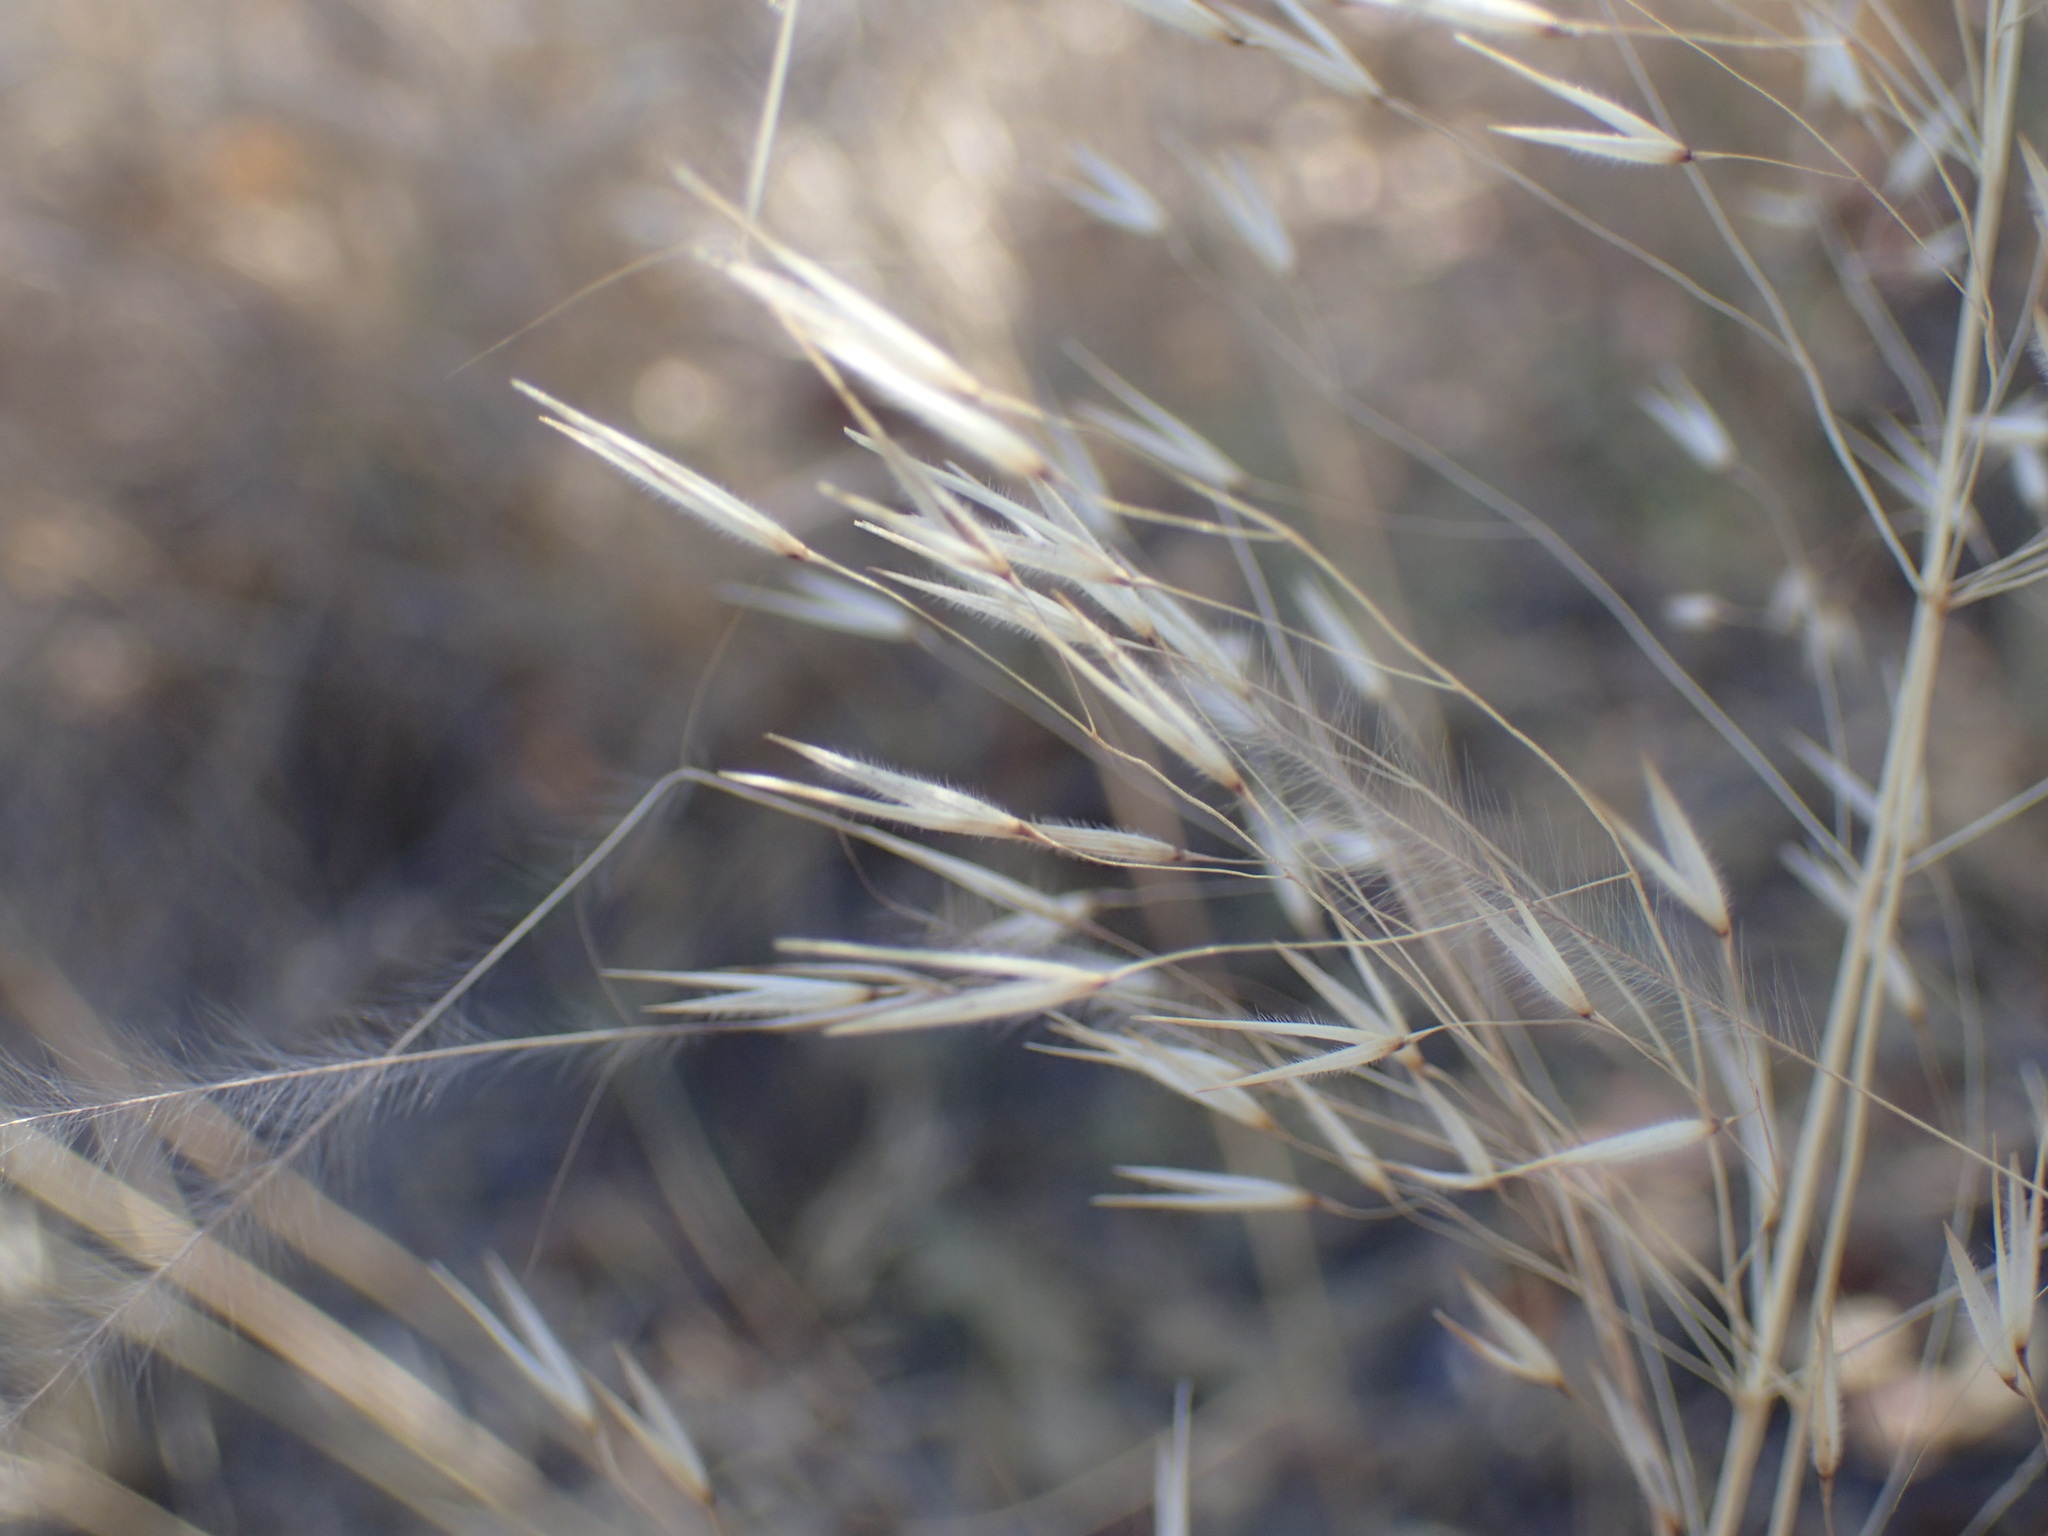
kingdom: Plantae
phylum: Tracheophyta
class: Liliopsida
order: Poales
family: Poaceae
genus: Stipagrostis
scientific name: Stipagrostis uniplumis
